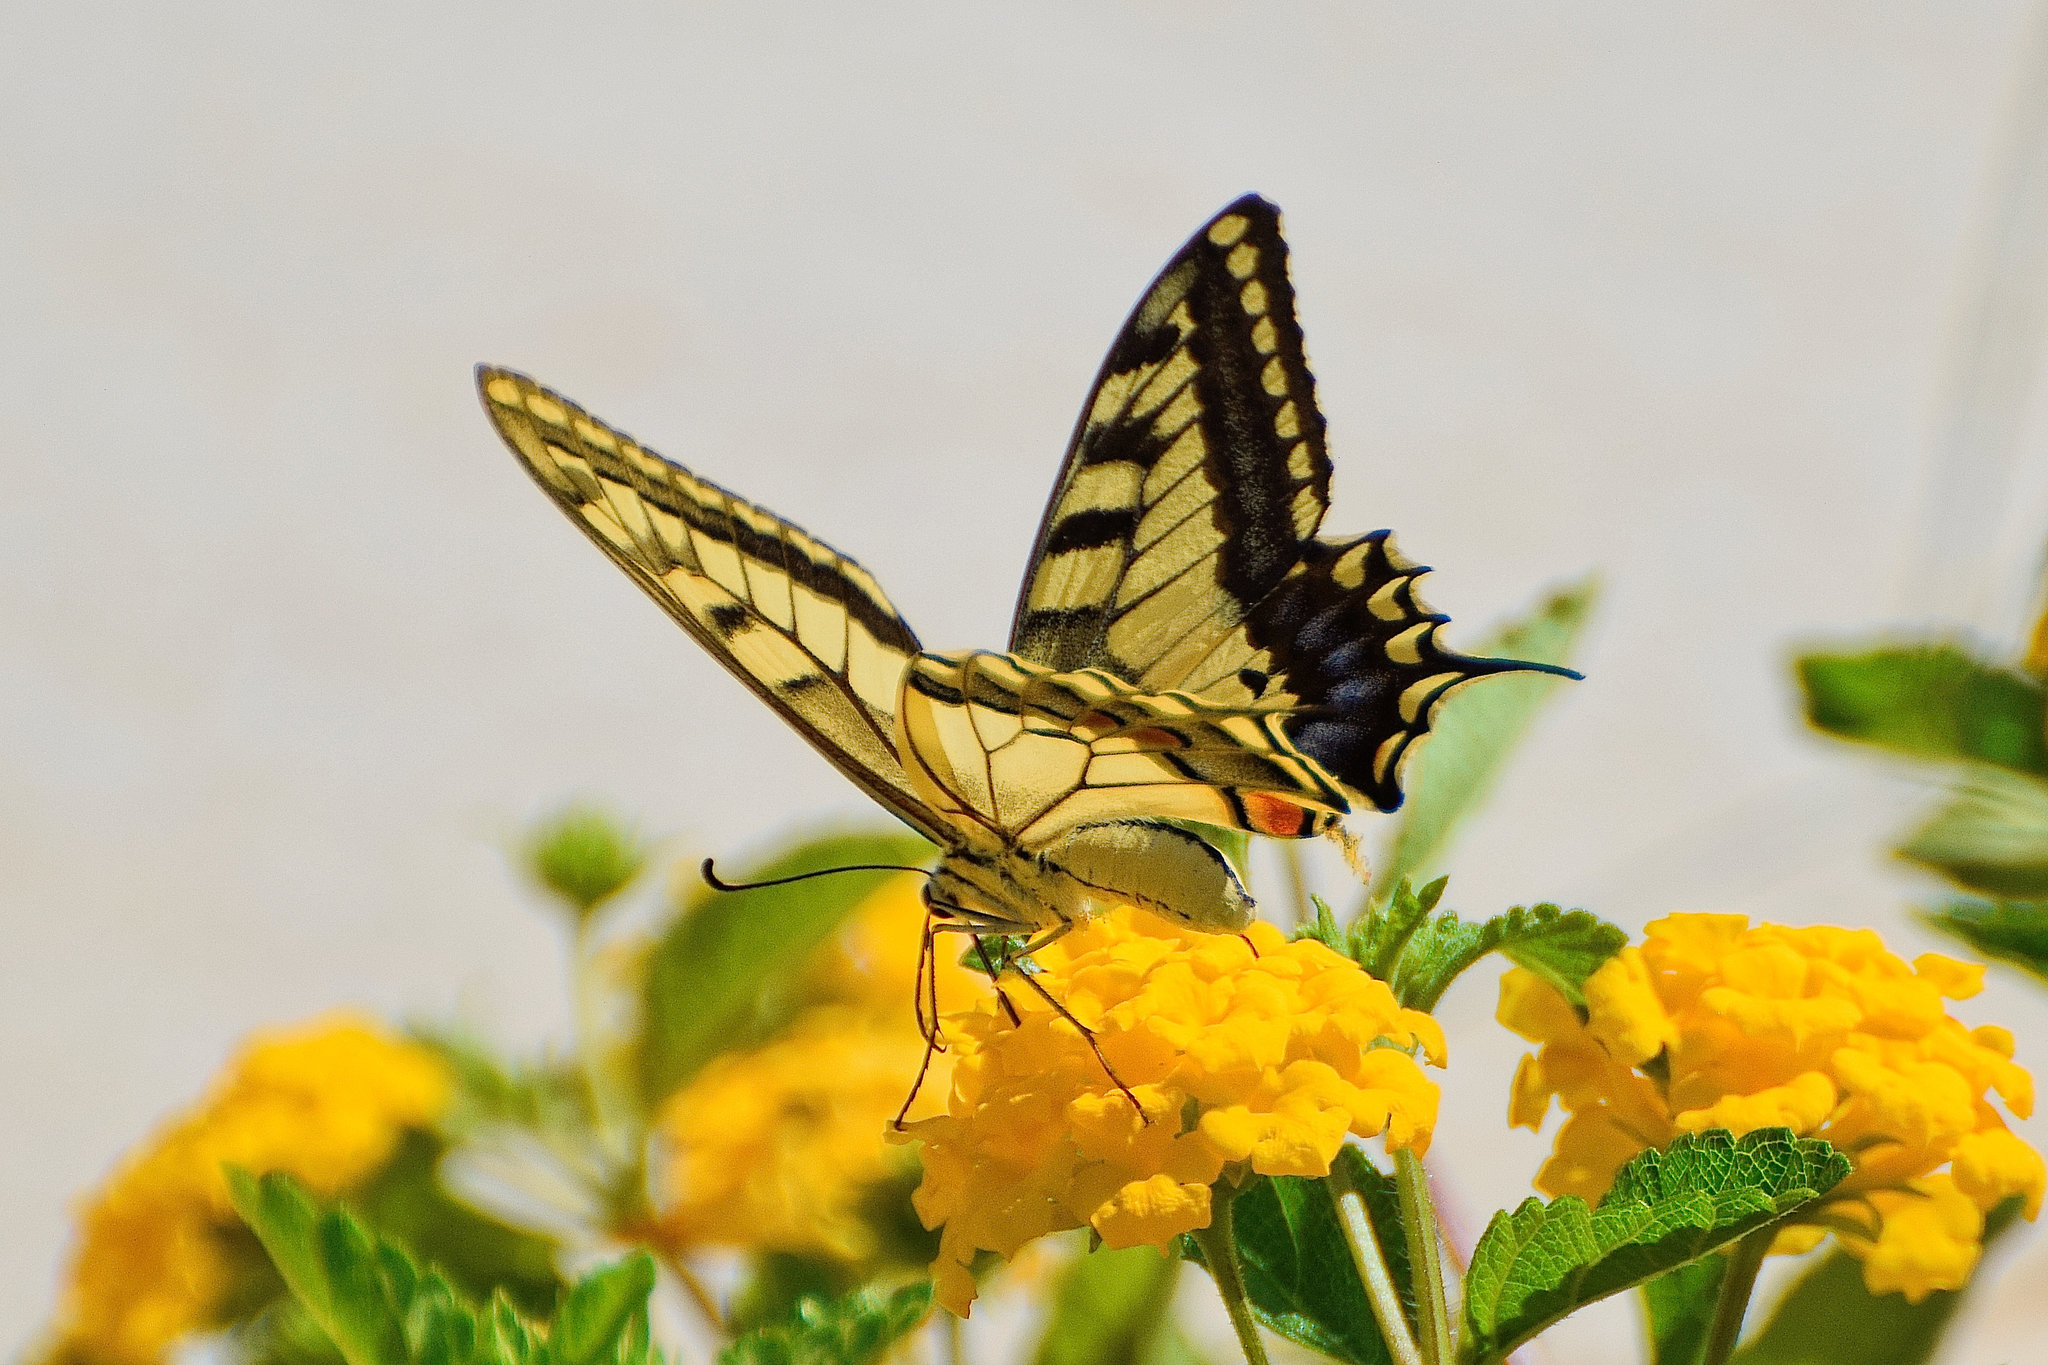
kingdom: Animalia
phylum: Arthropoda
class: Insecta
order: Lepidoptera
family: Papilionidae
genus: Papilio
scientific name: Papilio machaon
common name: Swallowtail
